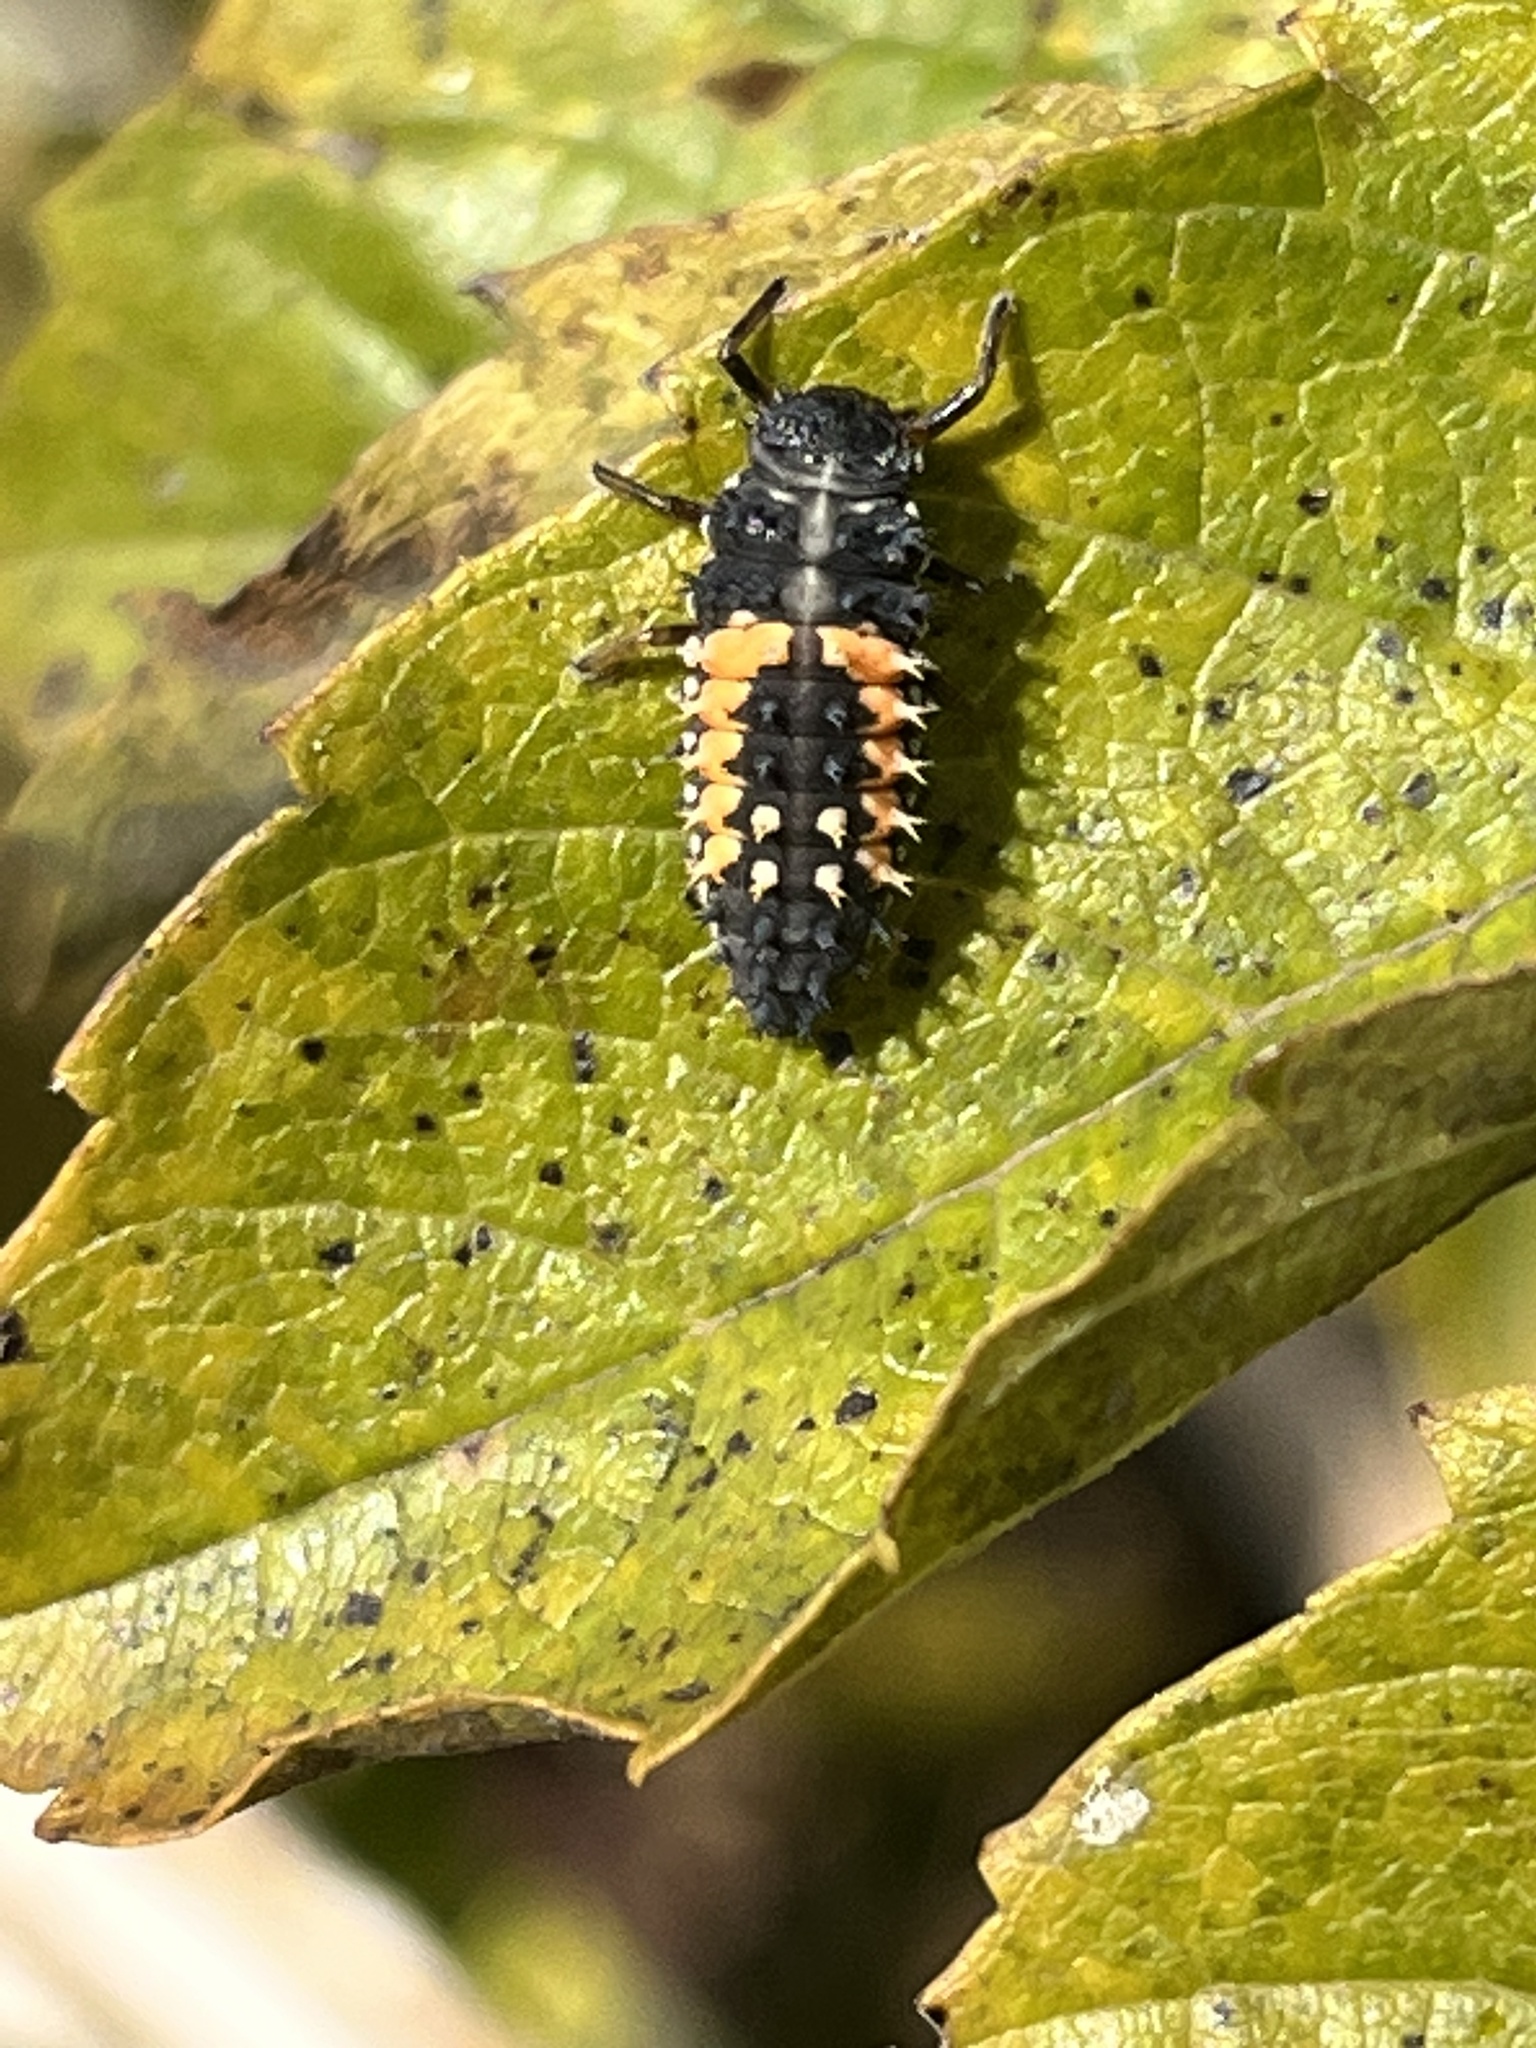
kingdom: Animalia
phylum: Arthropoda
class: Insecta
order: Coleoptera
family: Coccinellidae
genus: Harmonia
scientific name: Harmonia axyridis
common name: Harlequin ladybird
